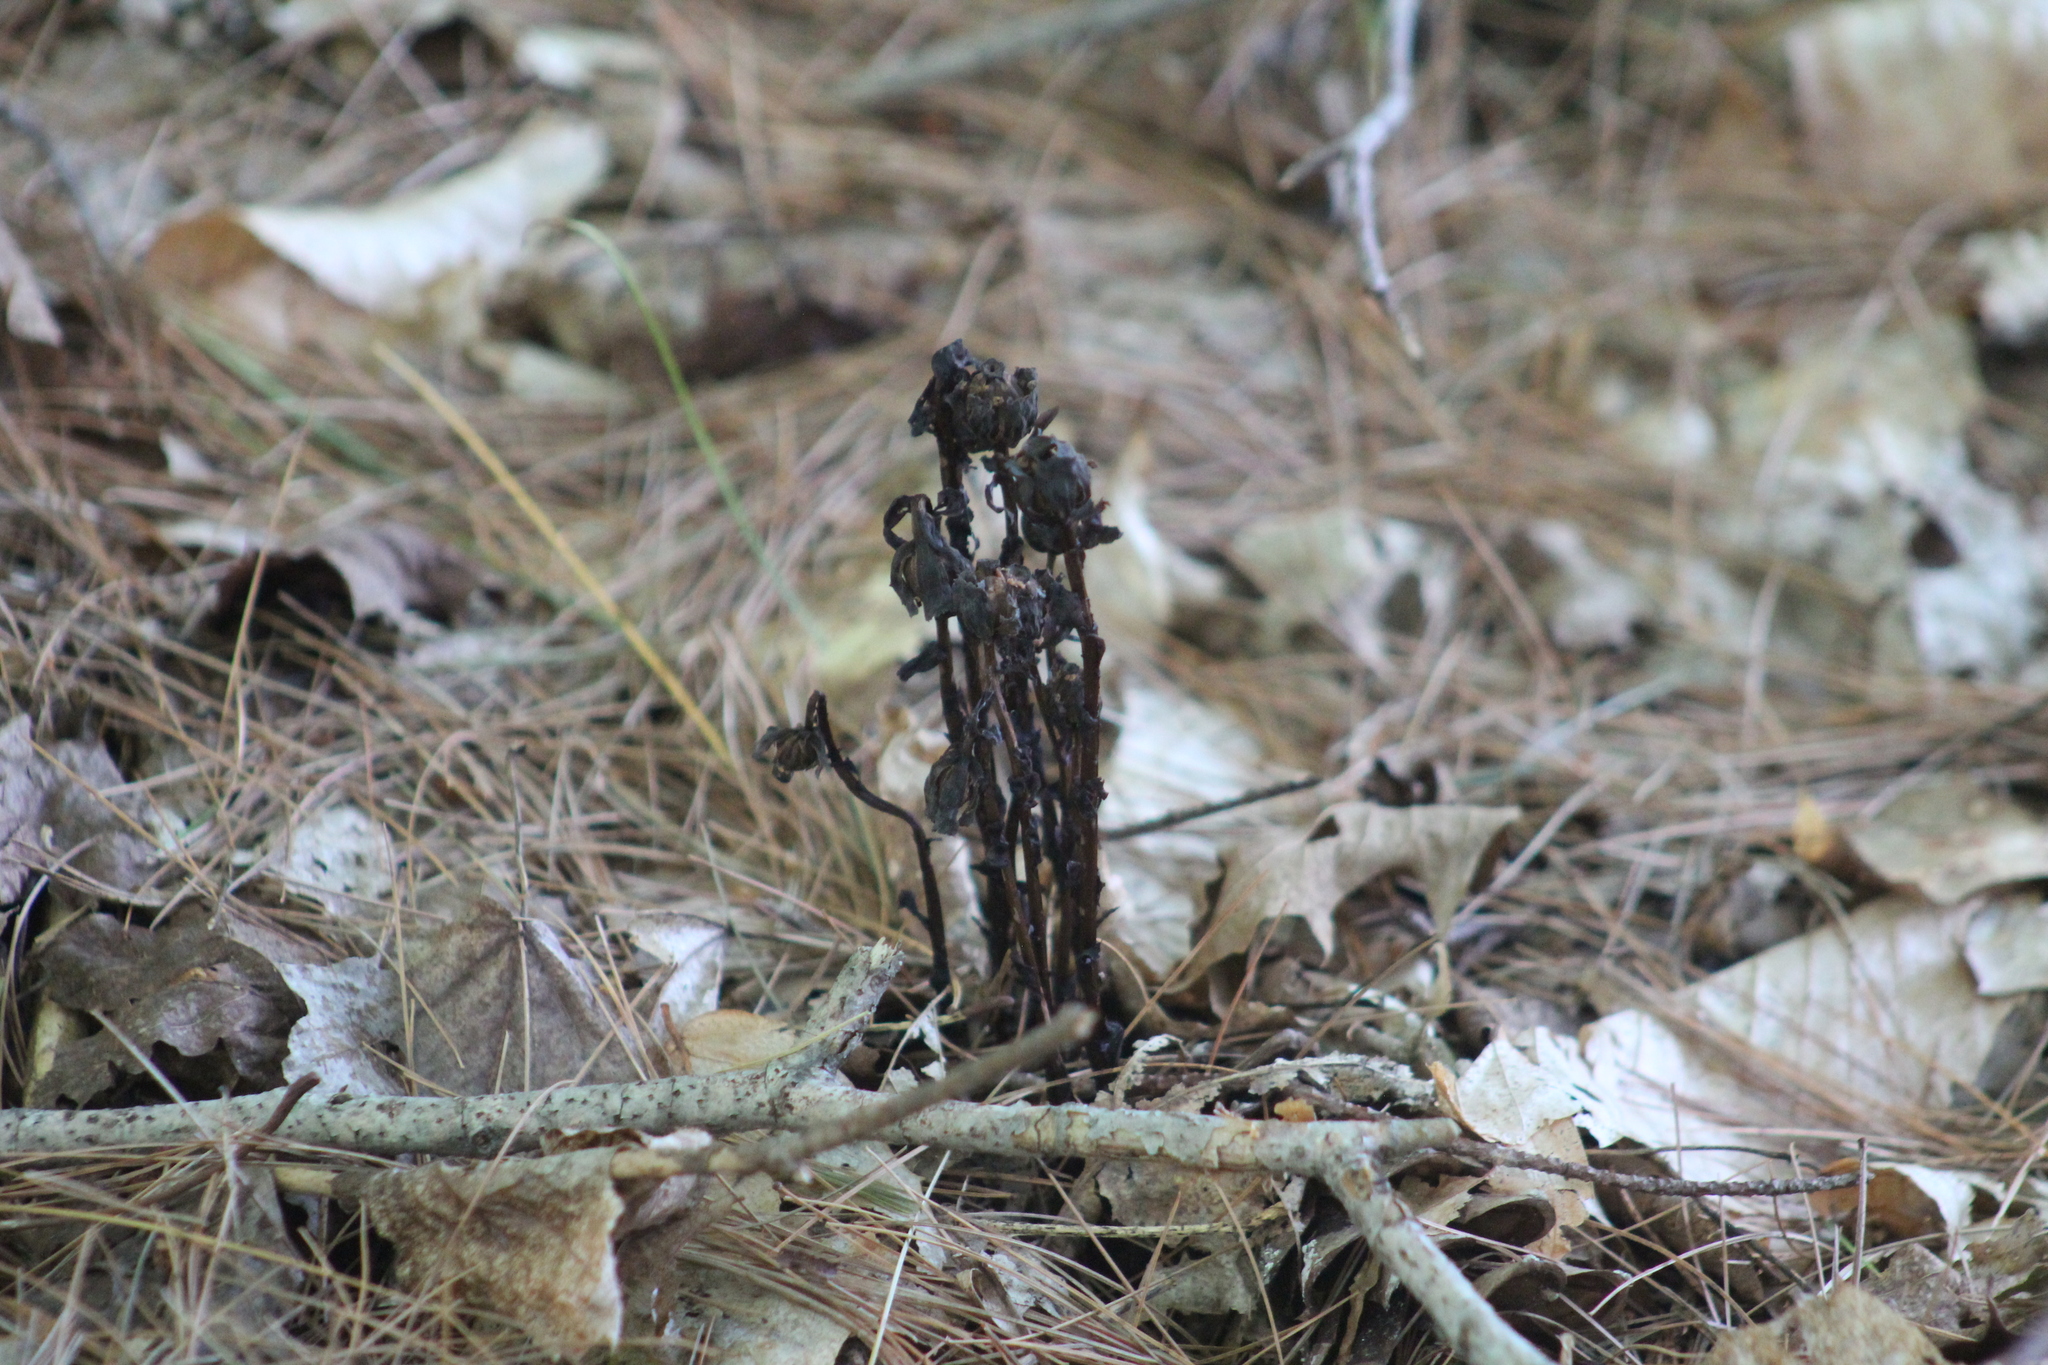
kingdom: Plantae
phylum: Tracheophyta
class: Magnoliopsida
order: Ericales
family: Ericaceae
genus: Monotropa
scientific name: Monotropa uniflora
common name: Convulsion root
